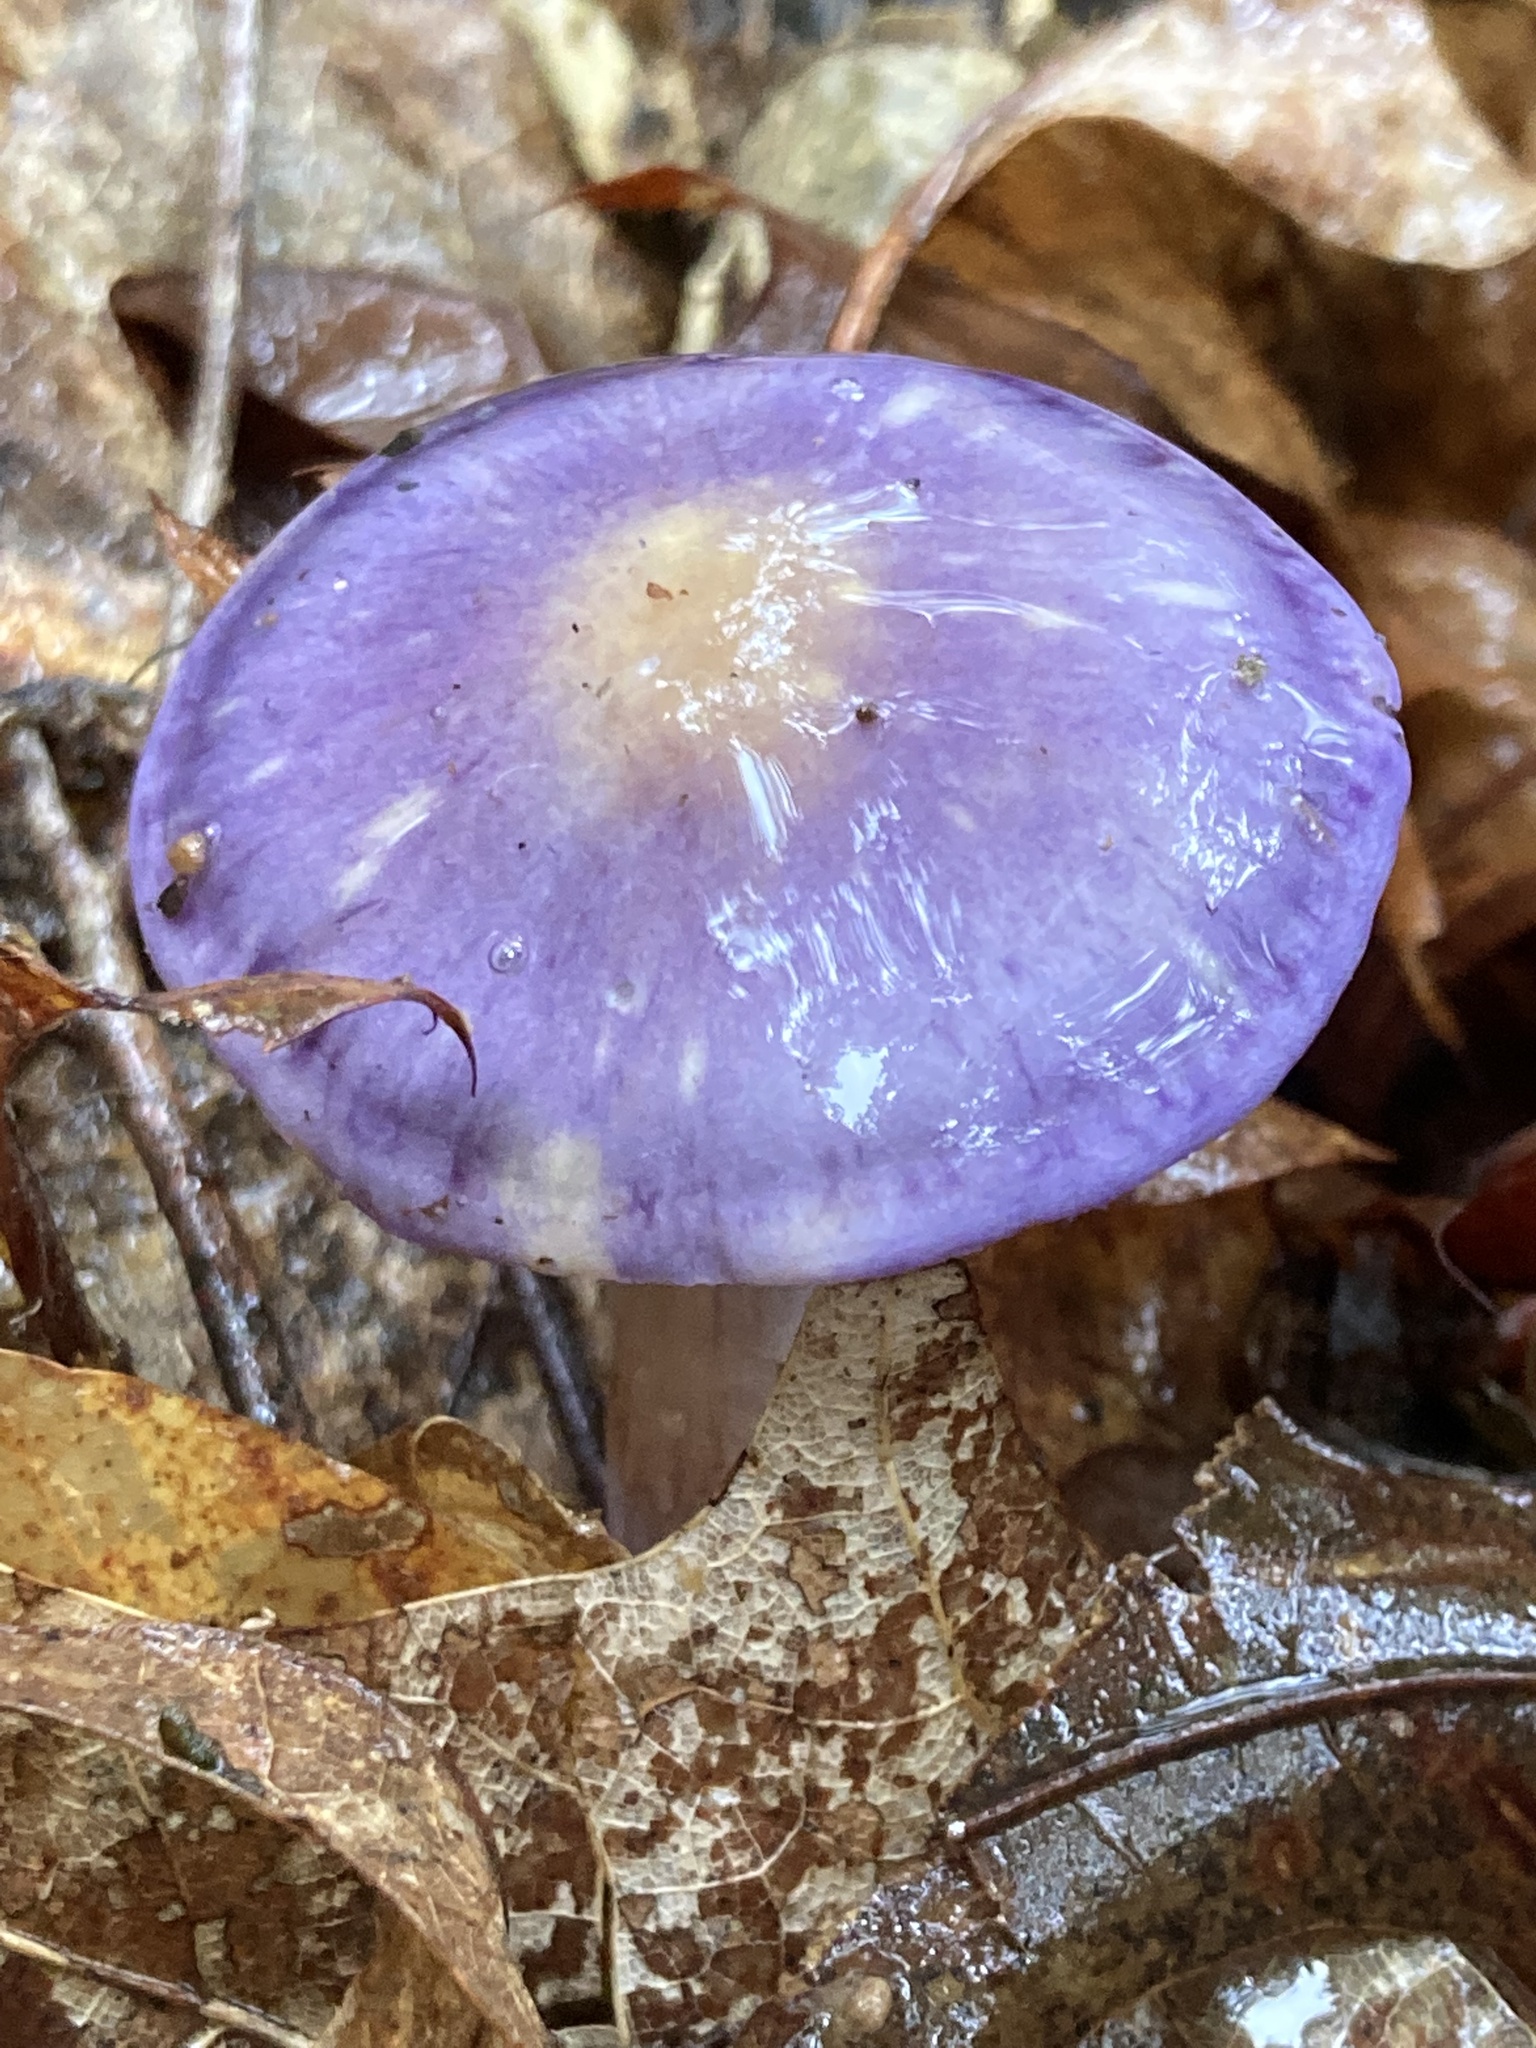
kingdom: Fungi
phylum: Basidiomycota
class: Agaricomycetes
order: Agaricales
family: Cortinariaceae
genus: Cortinarius
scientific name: Cortinarius iodes
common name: Viscid violet cort
